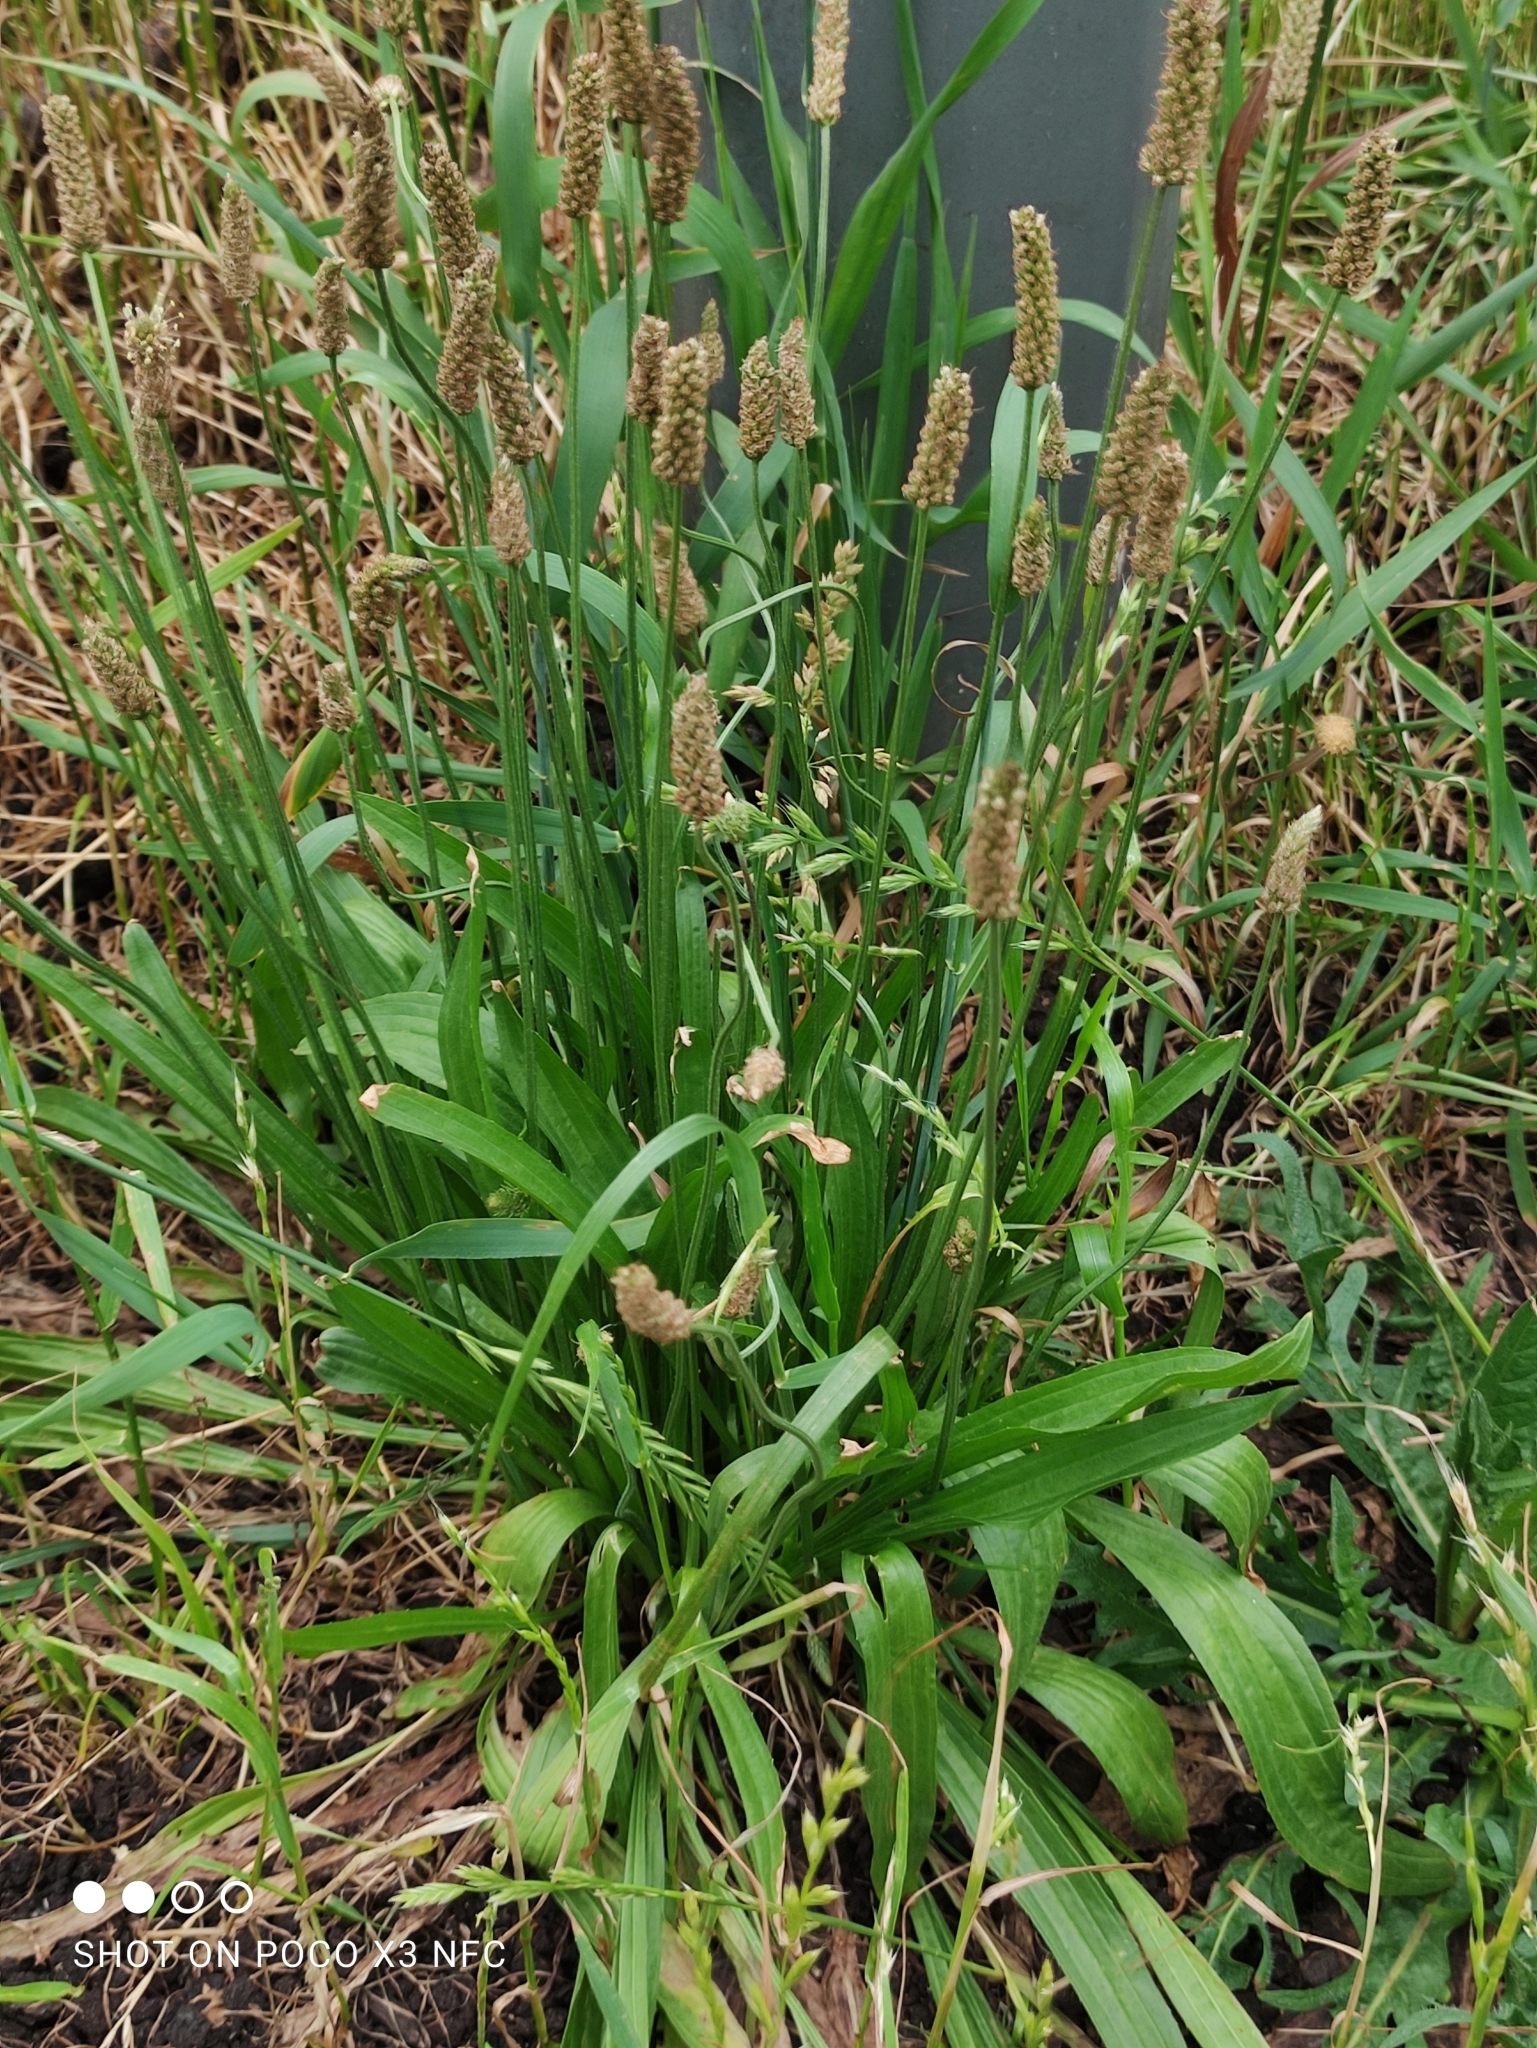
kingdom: Plantae
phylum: Tracheophyta
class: Magnoliopsida
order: Lamiales
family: Plantaginaceae
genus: Plantago
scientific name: Plantago lanceolata
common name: Ribwort plantain
